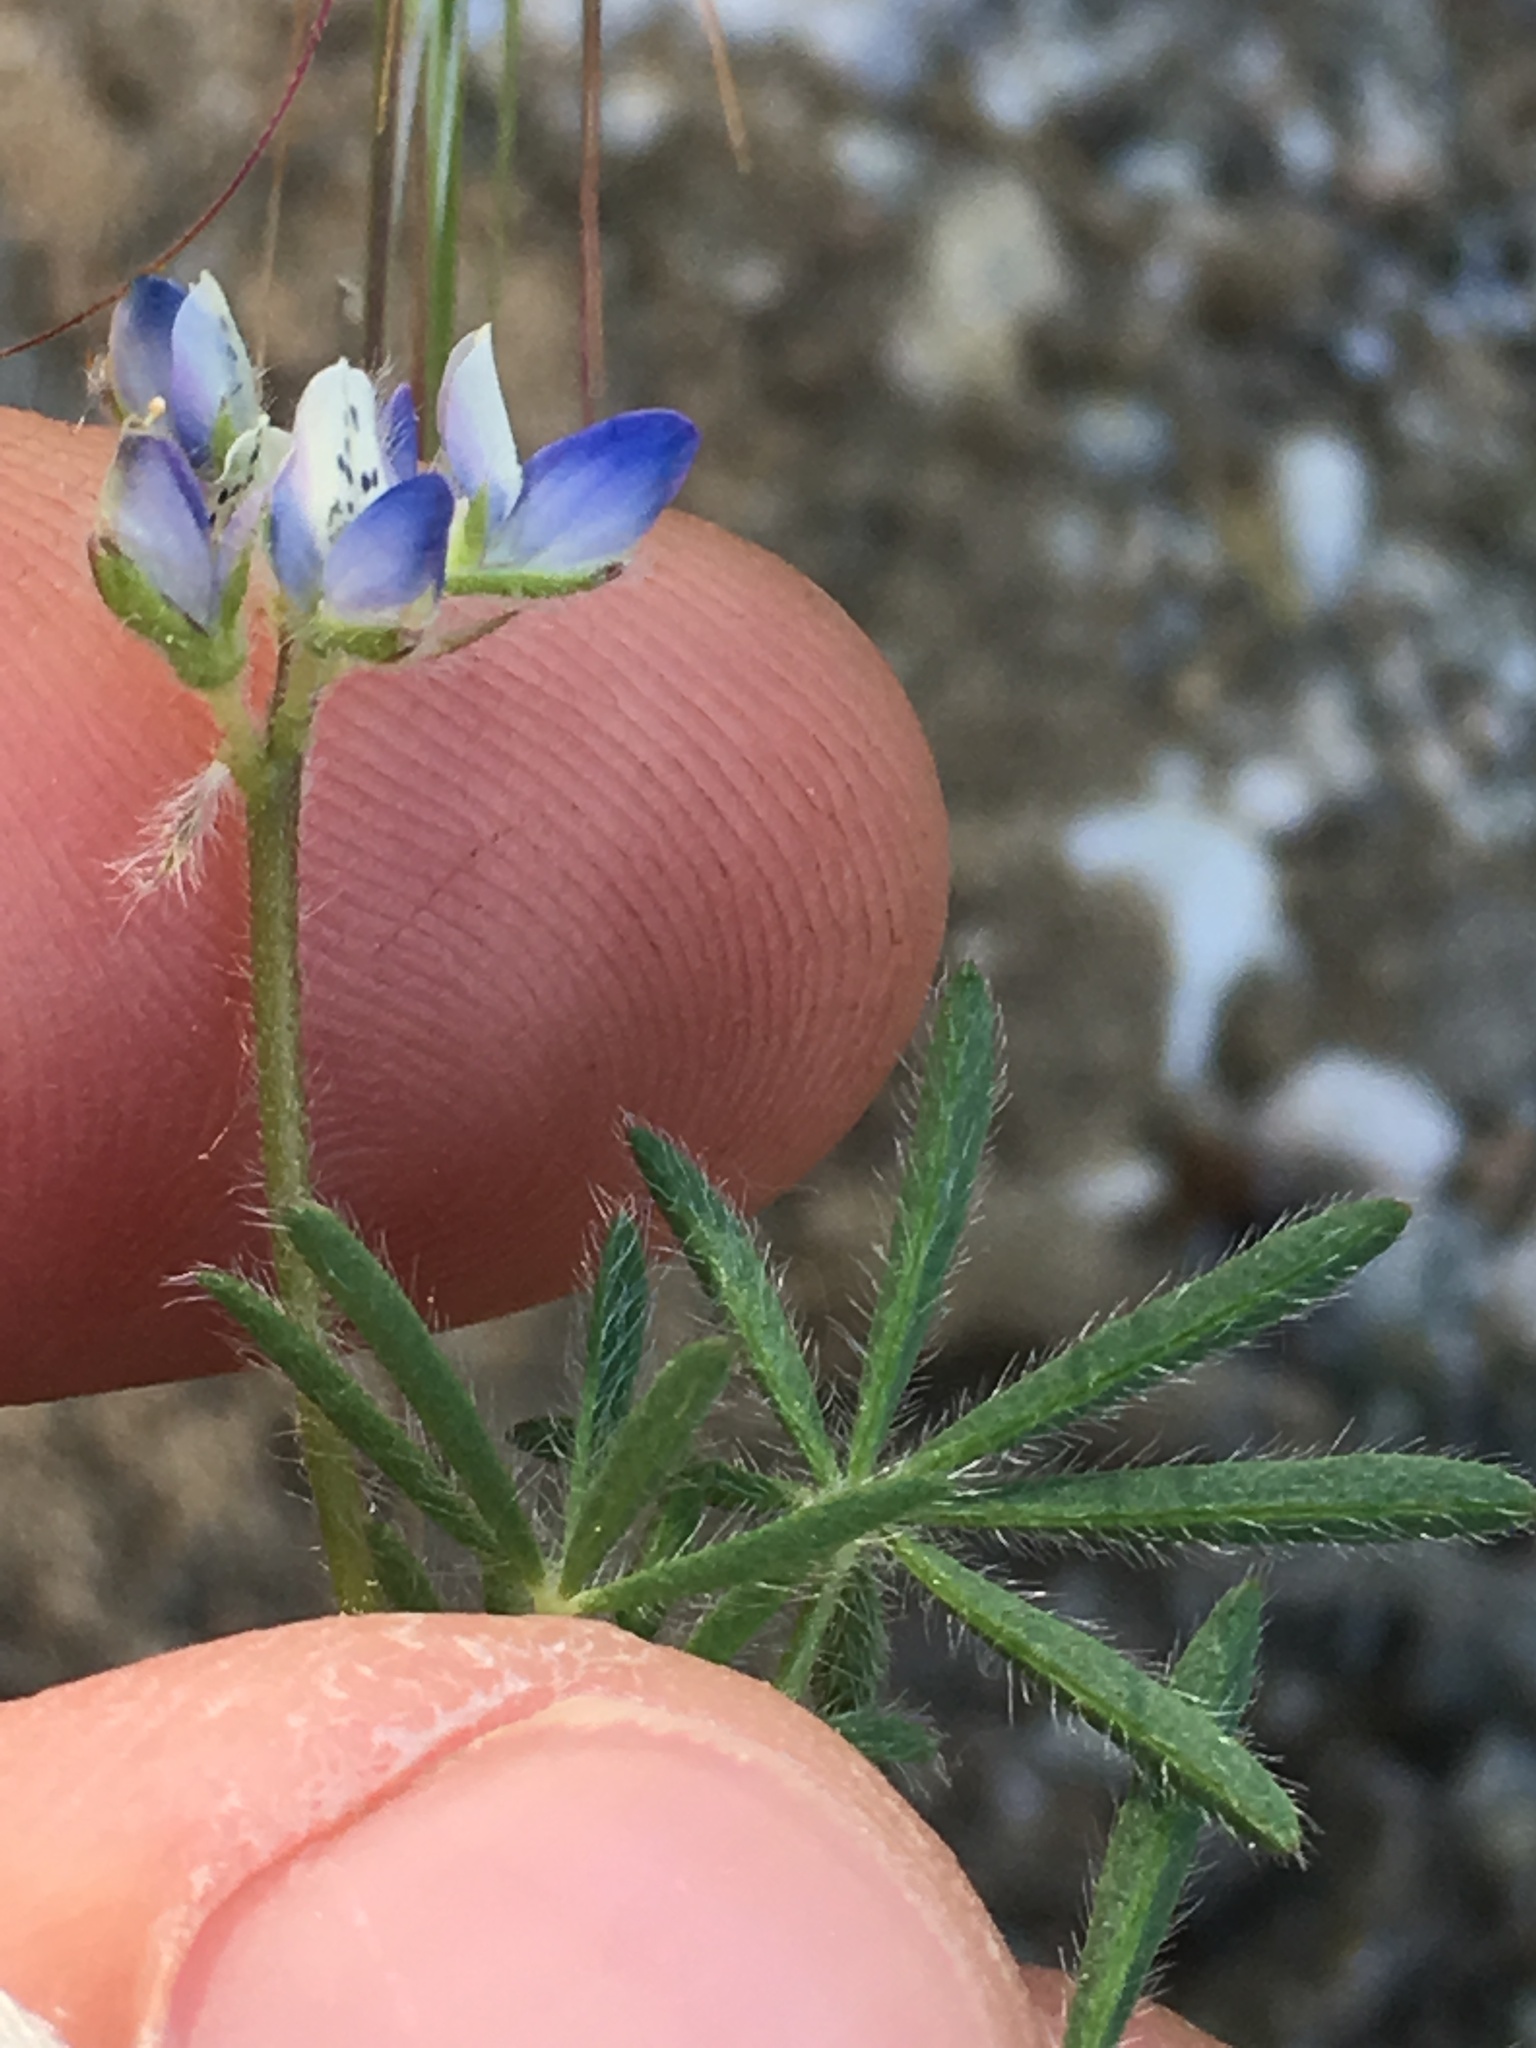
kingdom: Plantae
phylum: Tracheophyta
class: Magnoliopsida
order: Fabales
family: Fabaceae
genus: Lupinus
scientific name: Lupinus bicolor
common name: Miniature lupine
